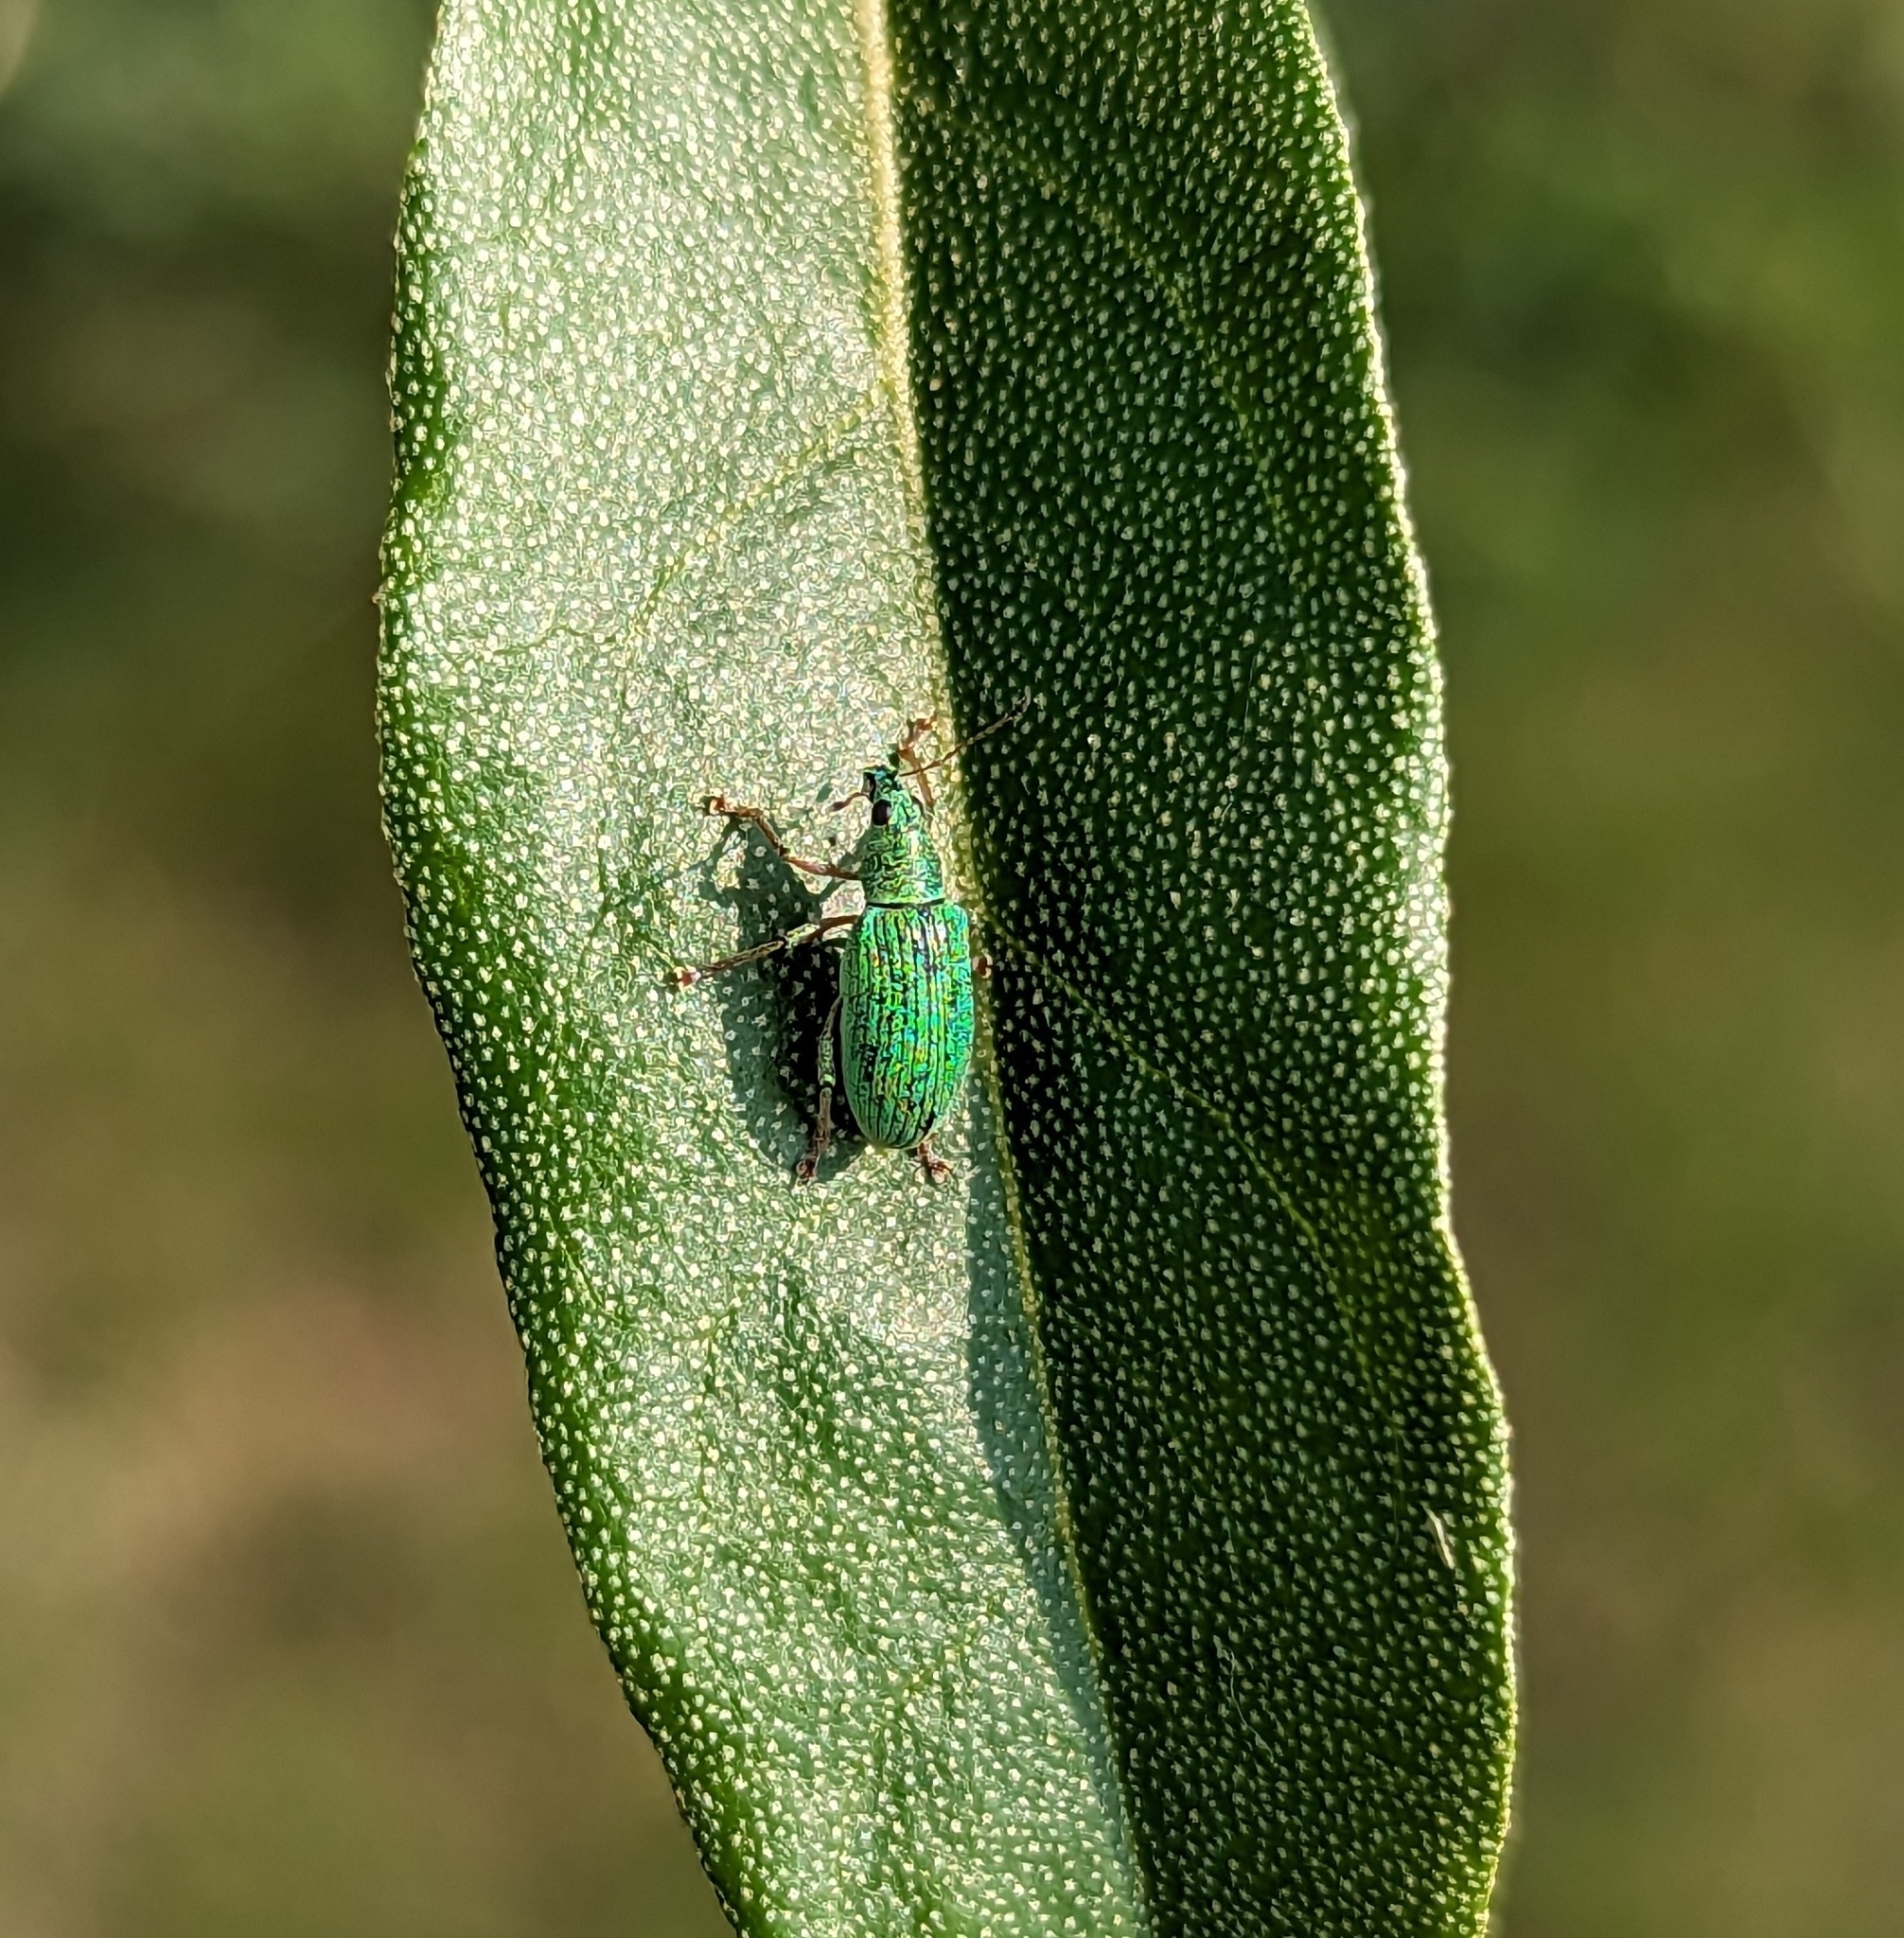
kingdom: Animalia
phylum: Arthropoda
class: Insecta
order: Coleoptera
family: Curculionidae
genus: Polydrusus
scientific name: Polydrusus formosus
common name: Weevil
